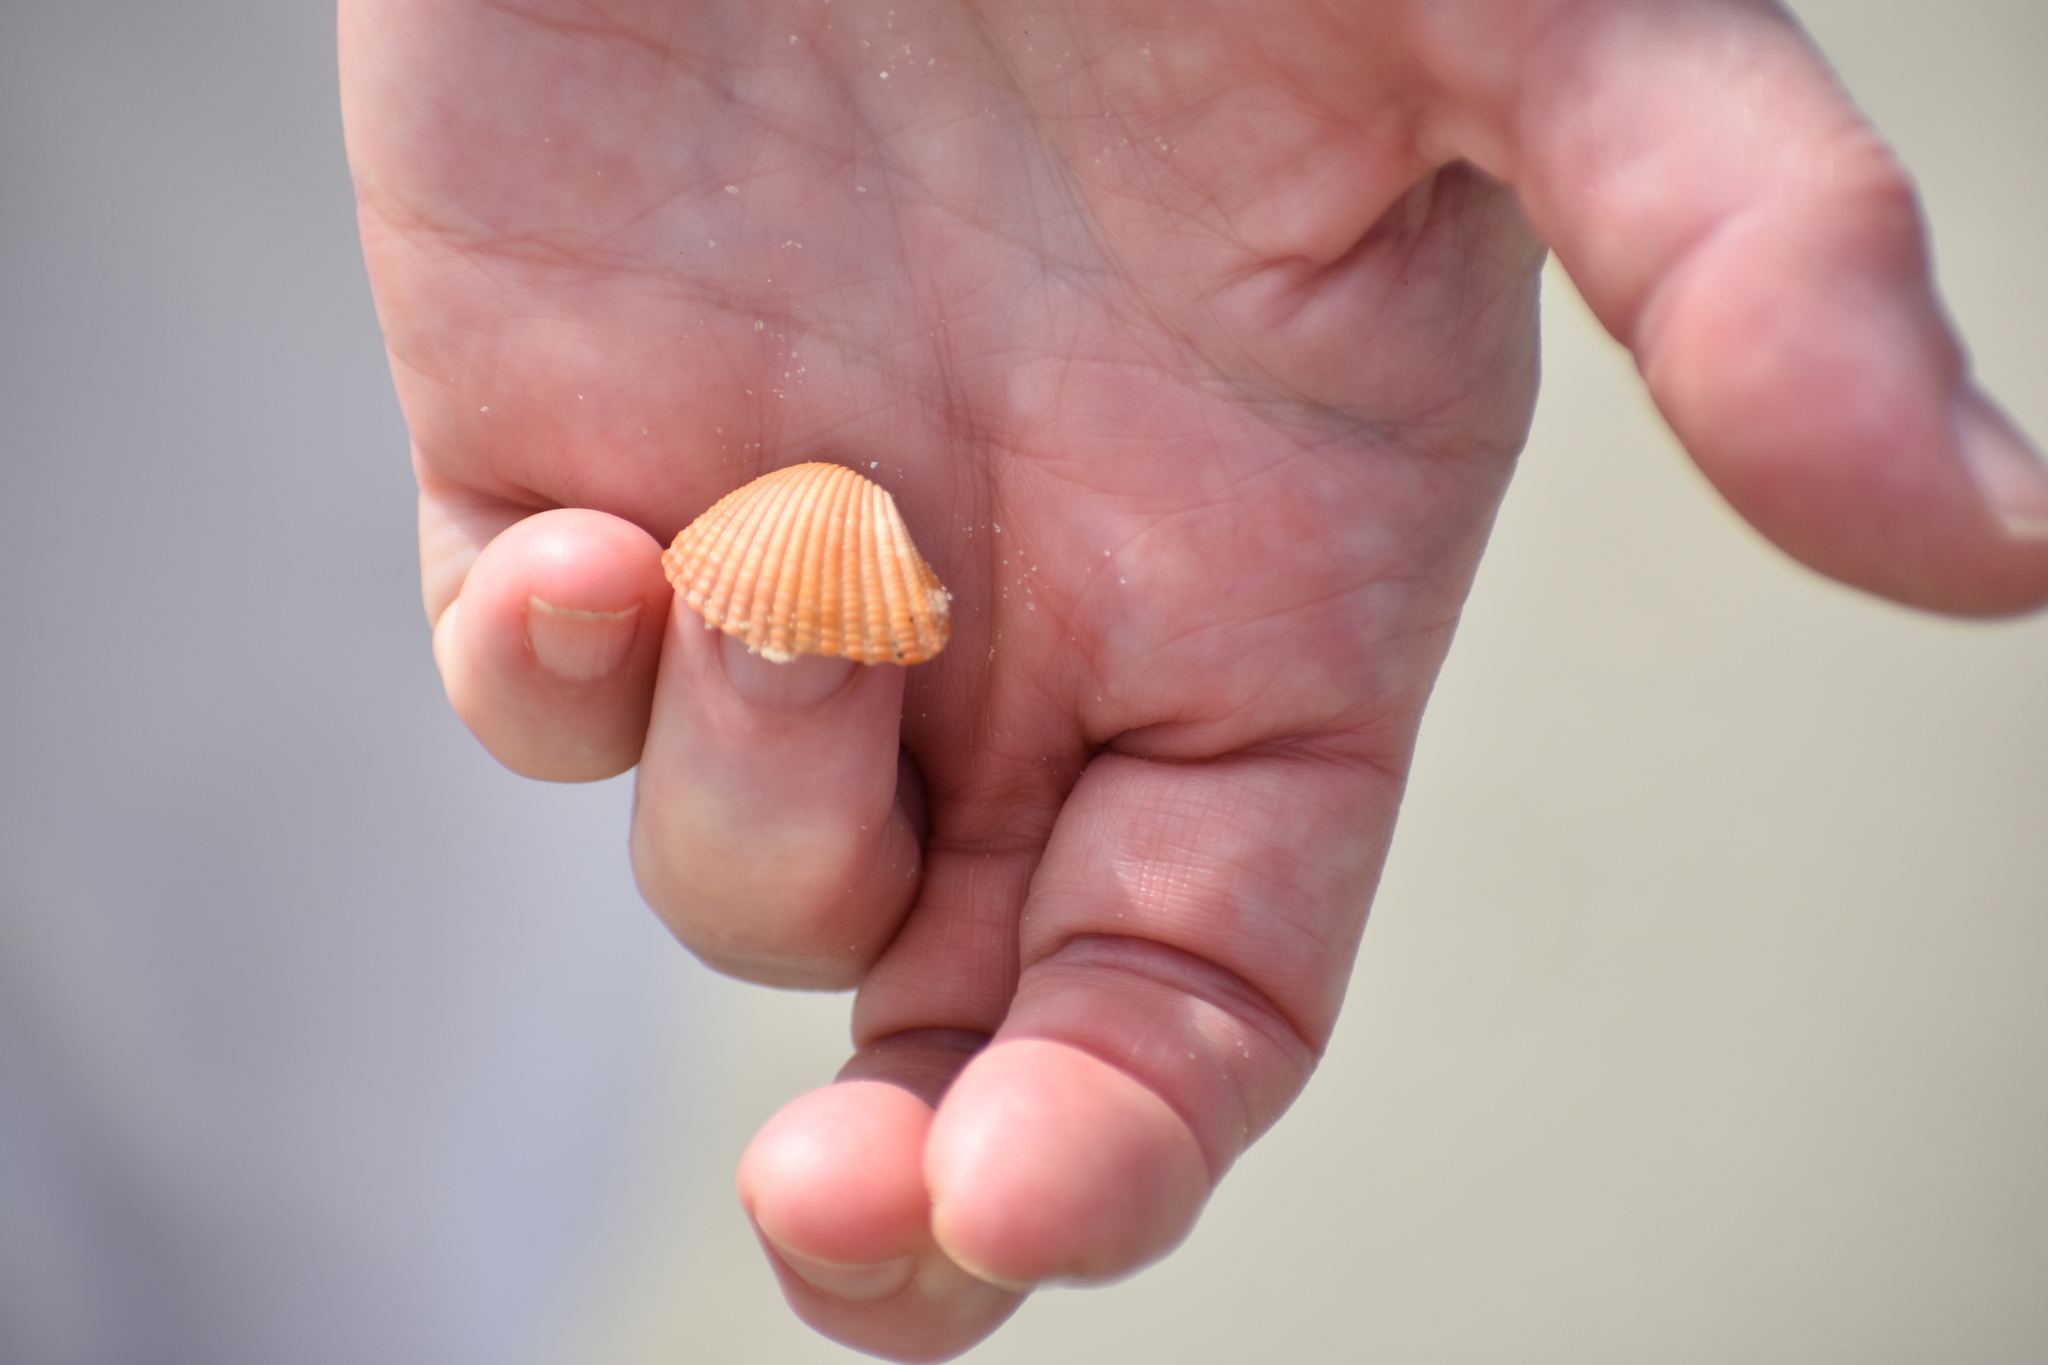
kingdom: Animalia
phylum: Mollusca
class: Bivalvia
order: Arcida
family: Arcidae
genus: Anadara
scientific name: Anadara brasiliana
